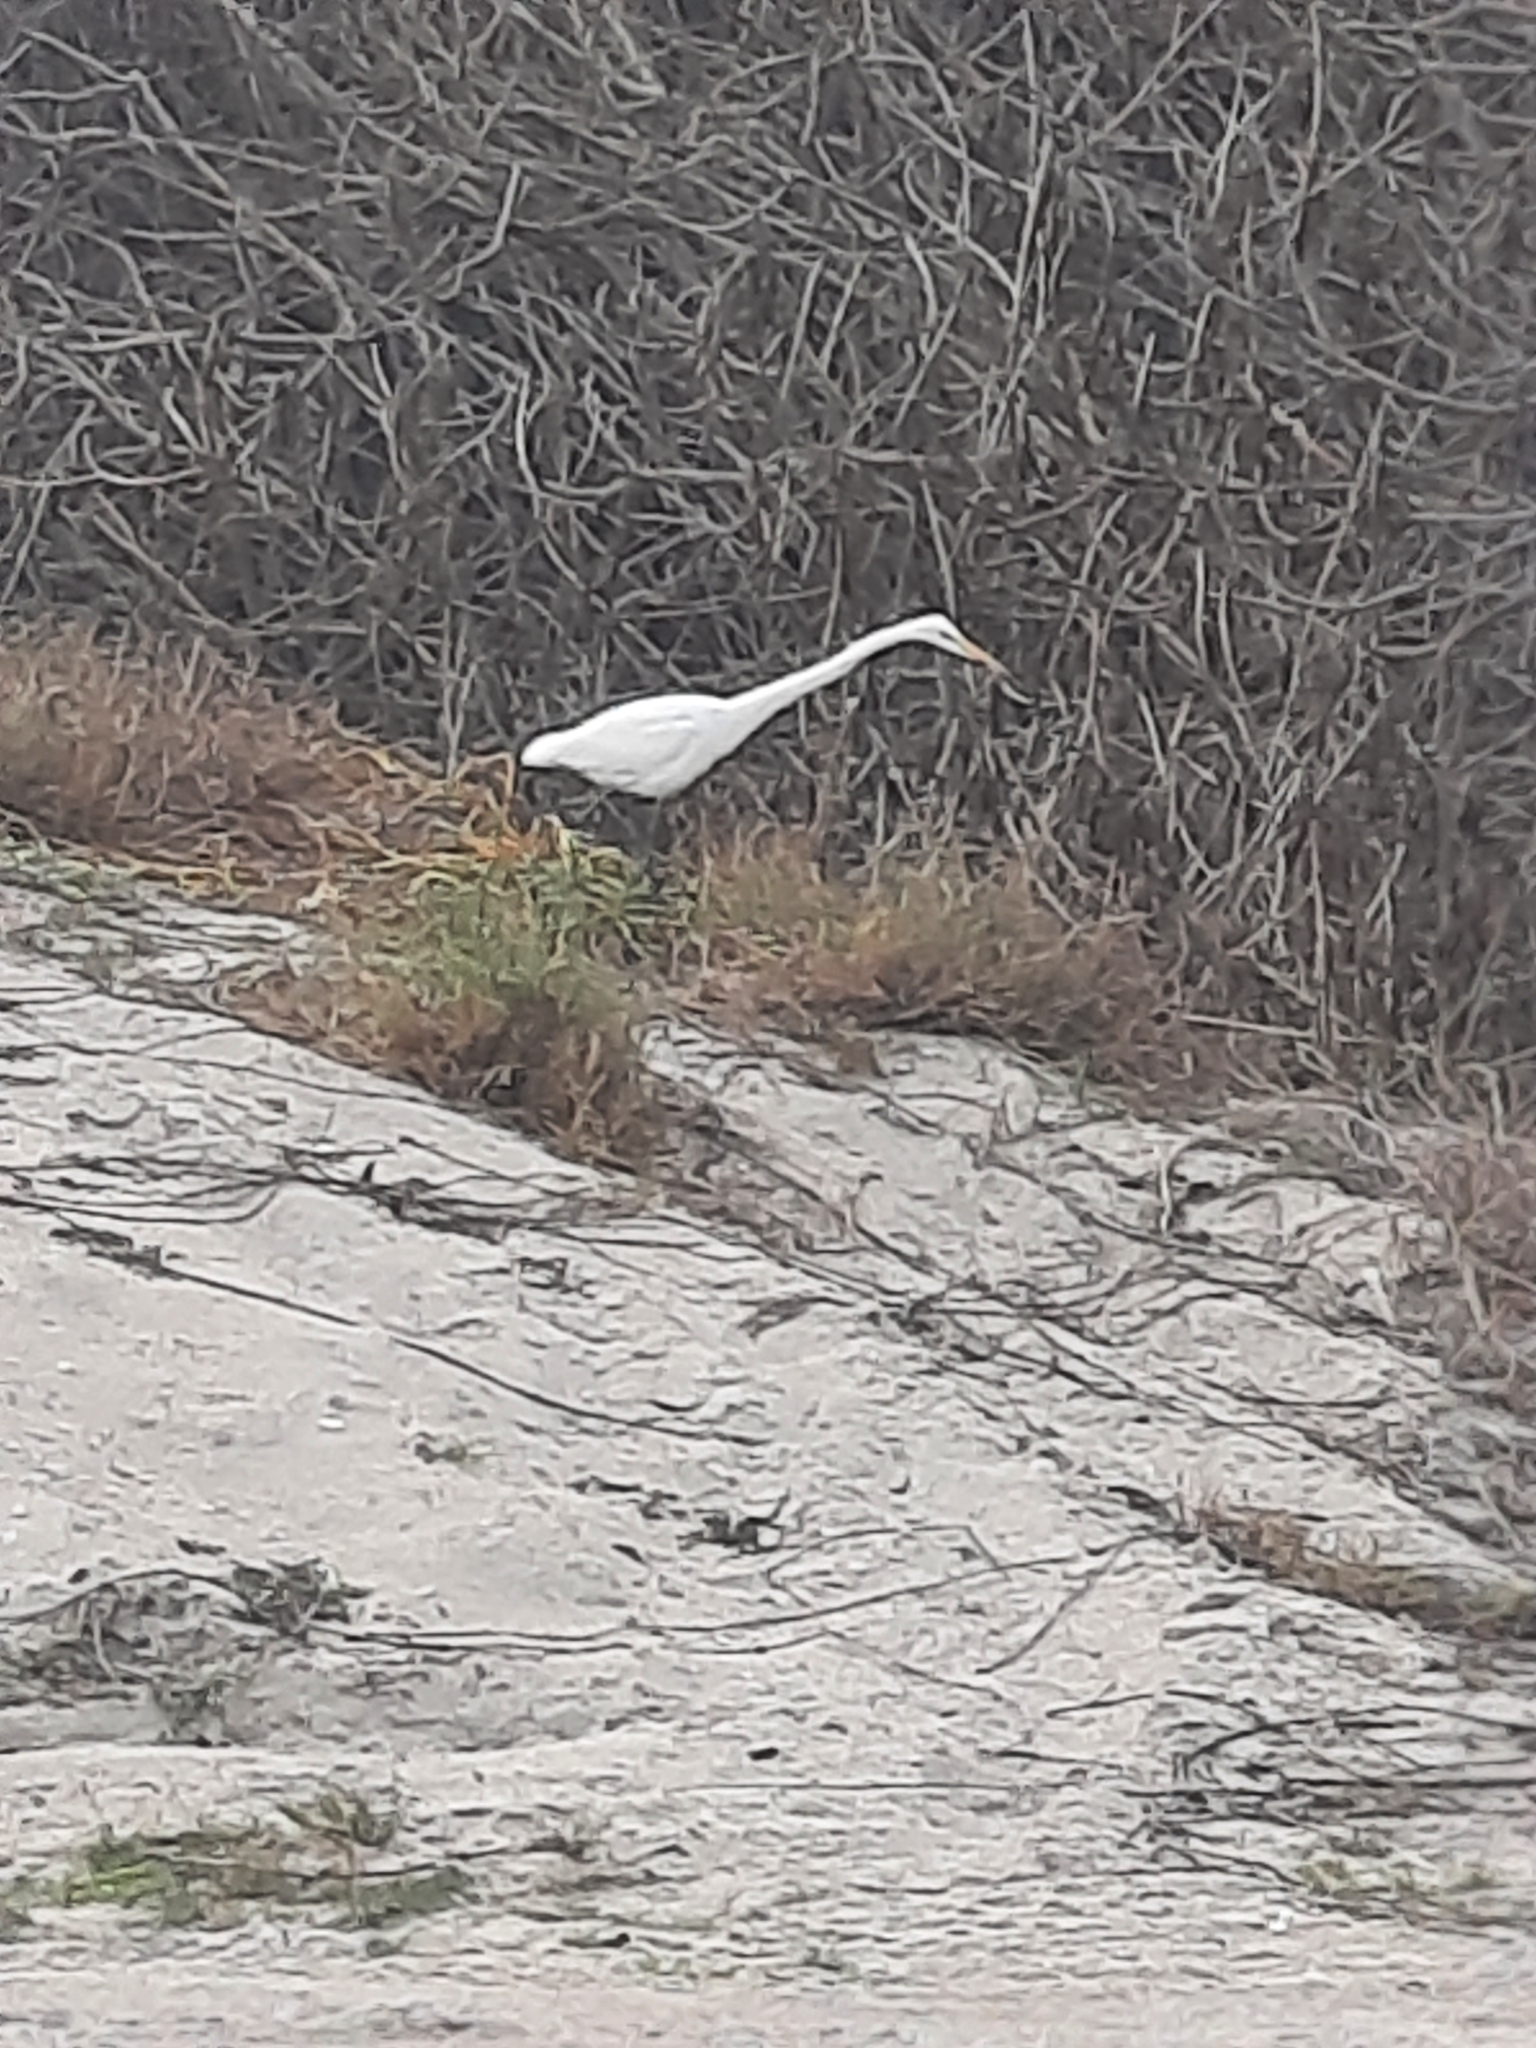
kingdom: Animalia
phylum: Chordata
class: Aves
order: Pelecaniformes
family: Ardeidae
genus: Ardea
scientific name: Ardea alba
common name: Great egret
